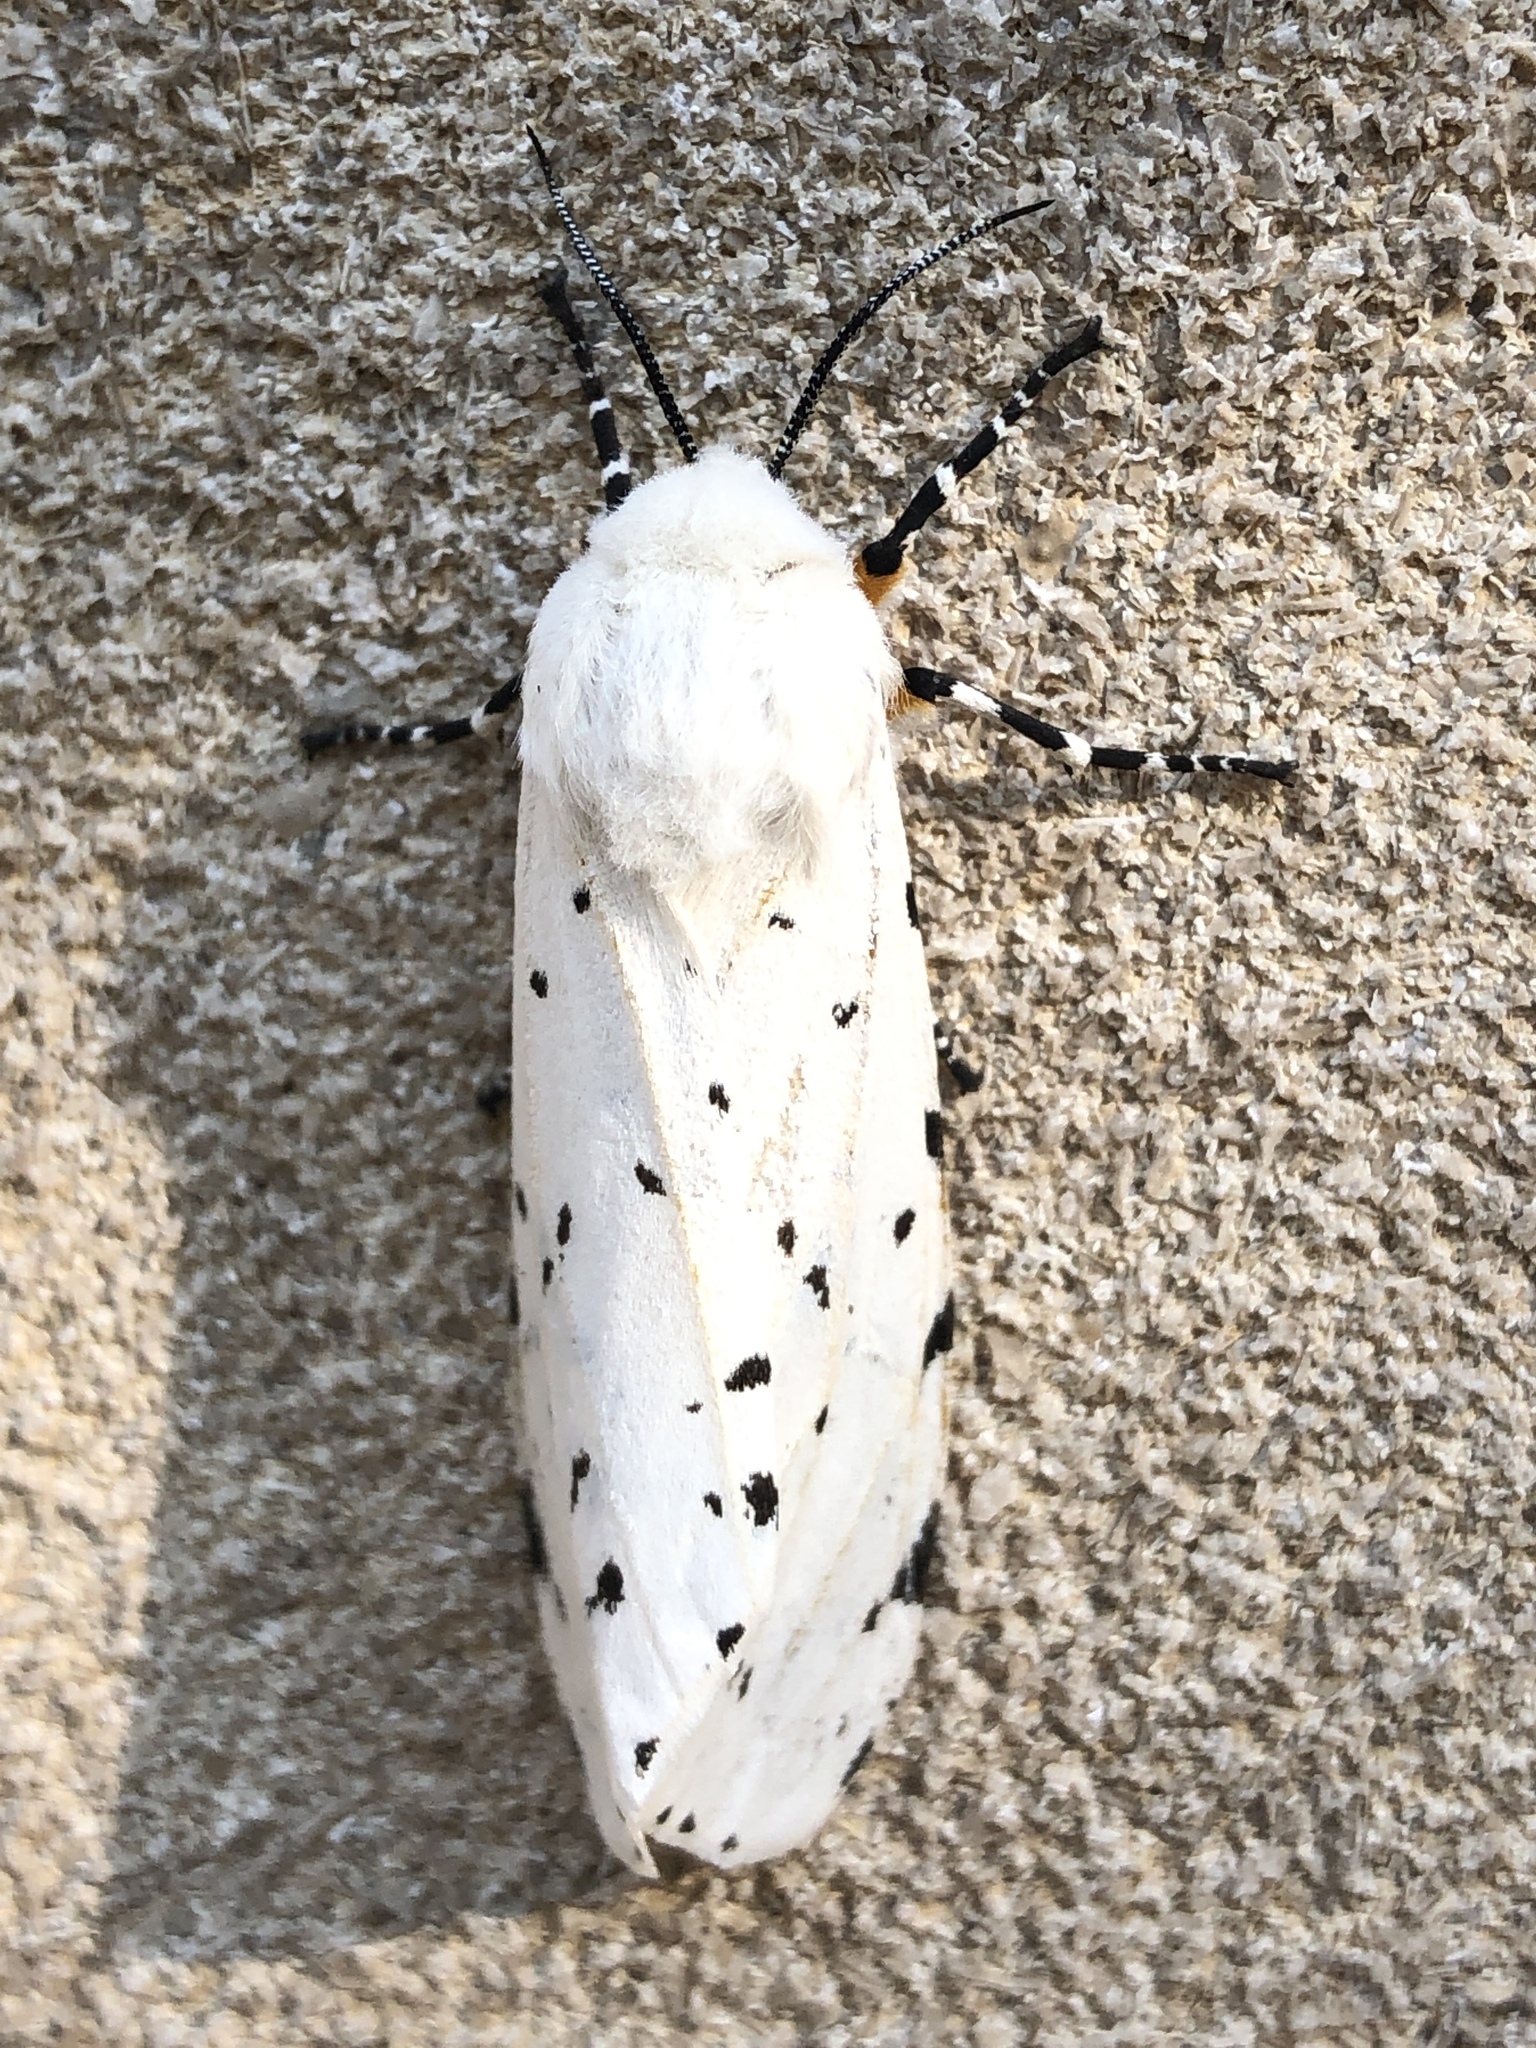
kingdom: Animalia
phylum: Arthropoda
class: Insecta
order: Lepidoptera
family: Erebidae
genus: Estigmene
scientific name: Estigmene acrea
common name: Salt marsh moth
